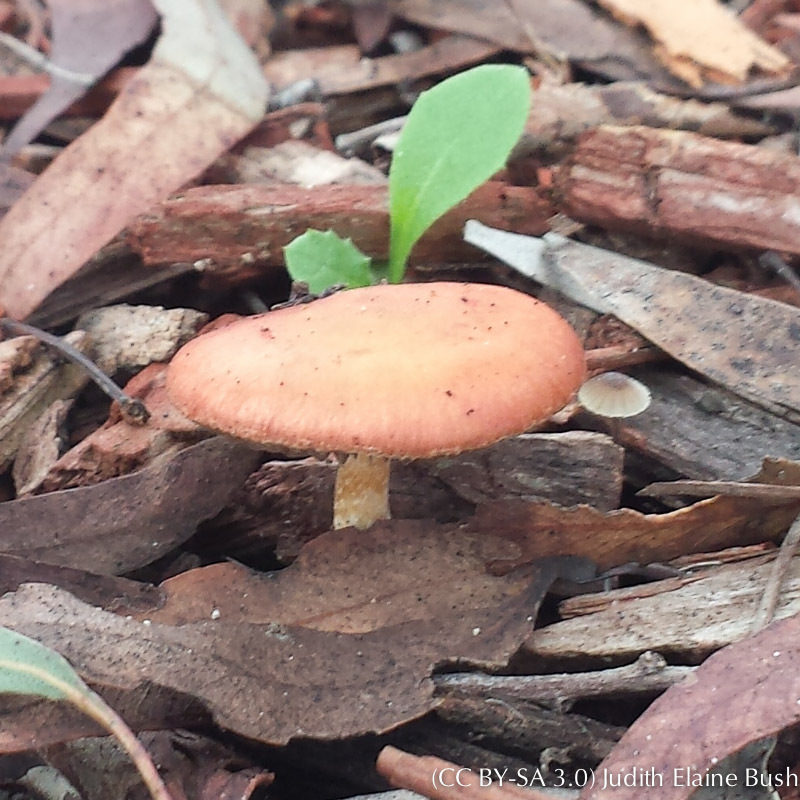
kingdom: Fungi
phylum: Basidiomycota
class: Agaricomycetes
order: Agaricales
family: Strophariaceae
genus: Leratiomyces
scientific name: Leratiomyces ceres
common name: Redlead roundhead
